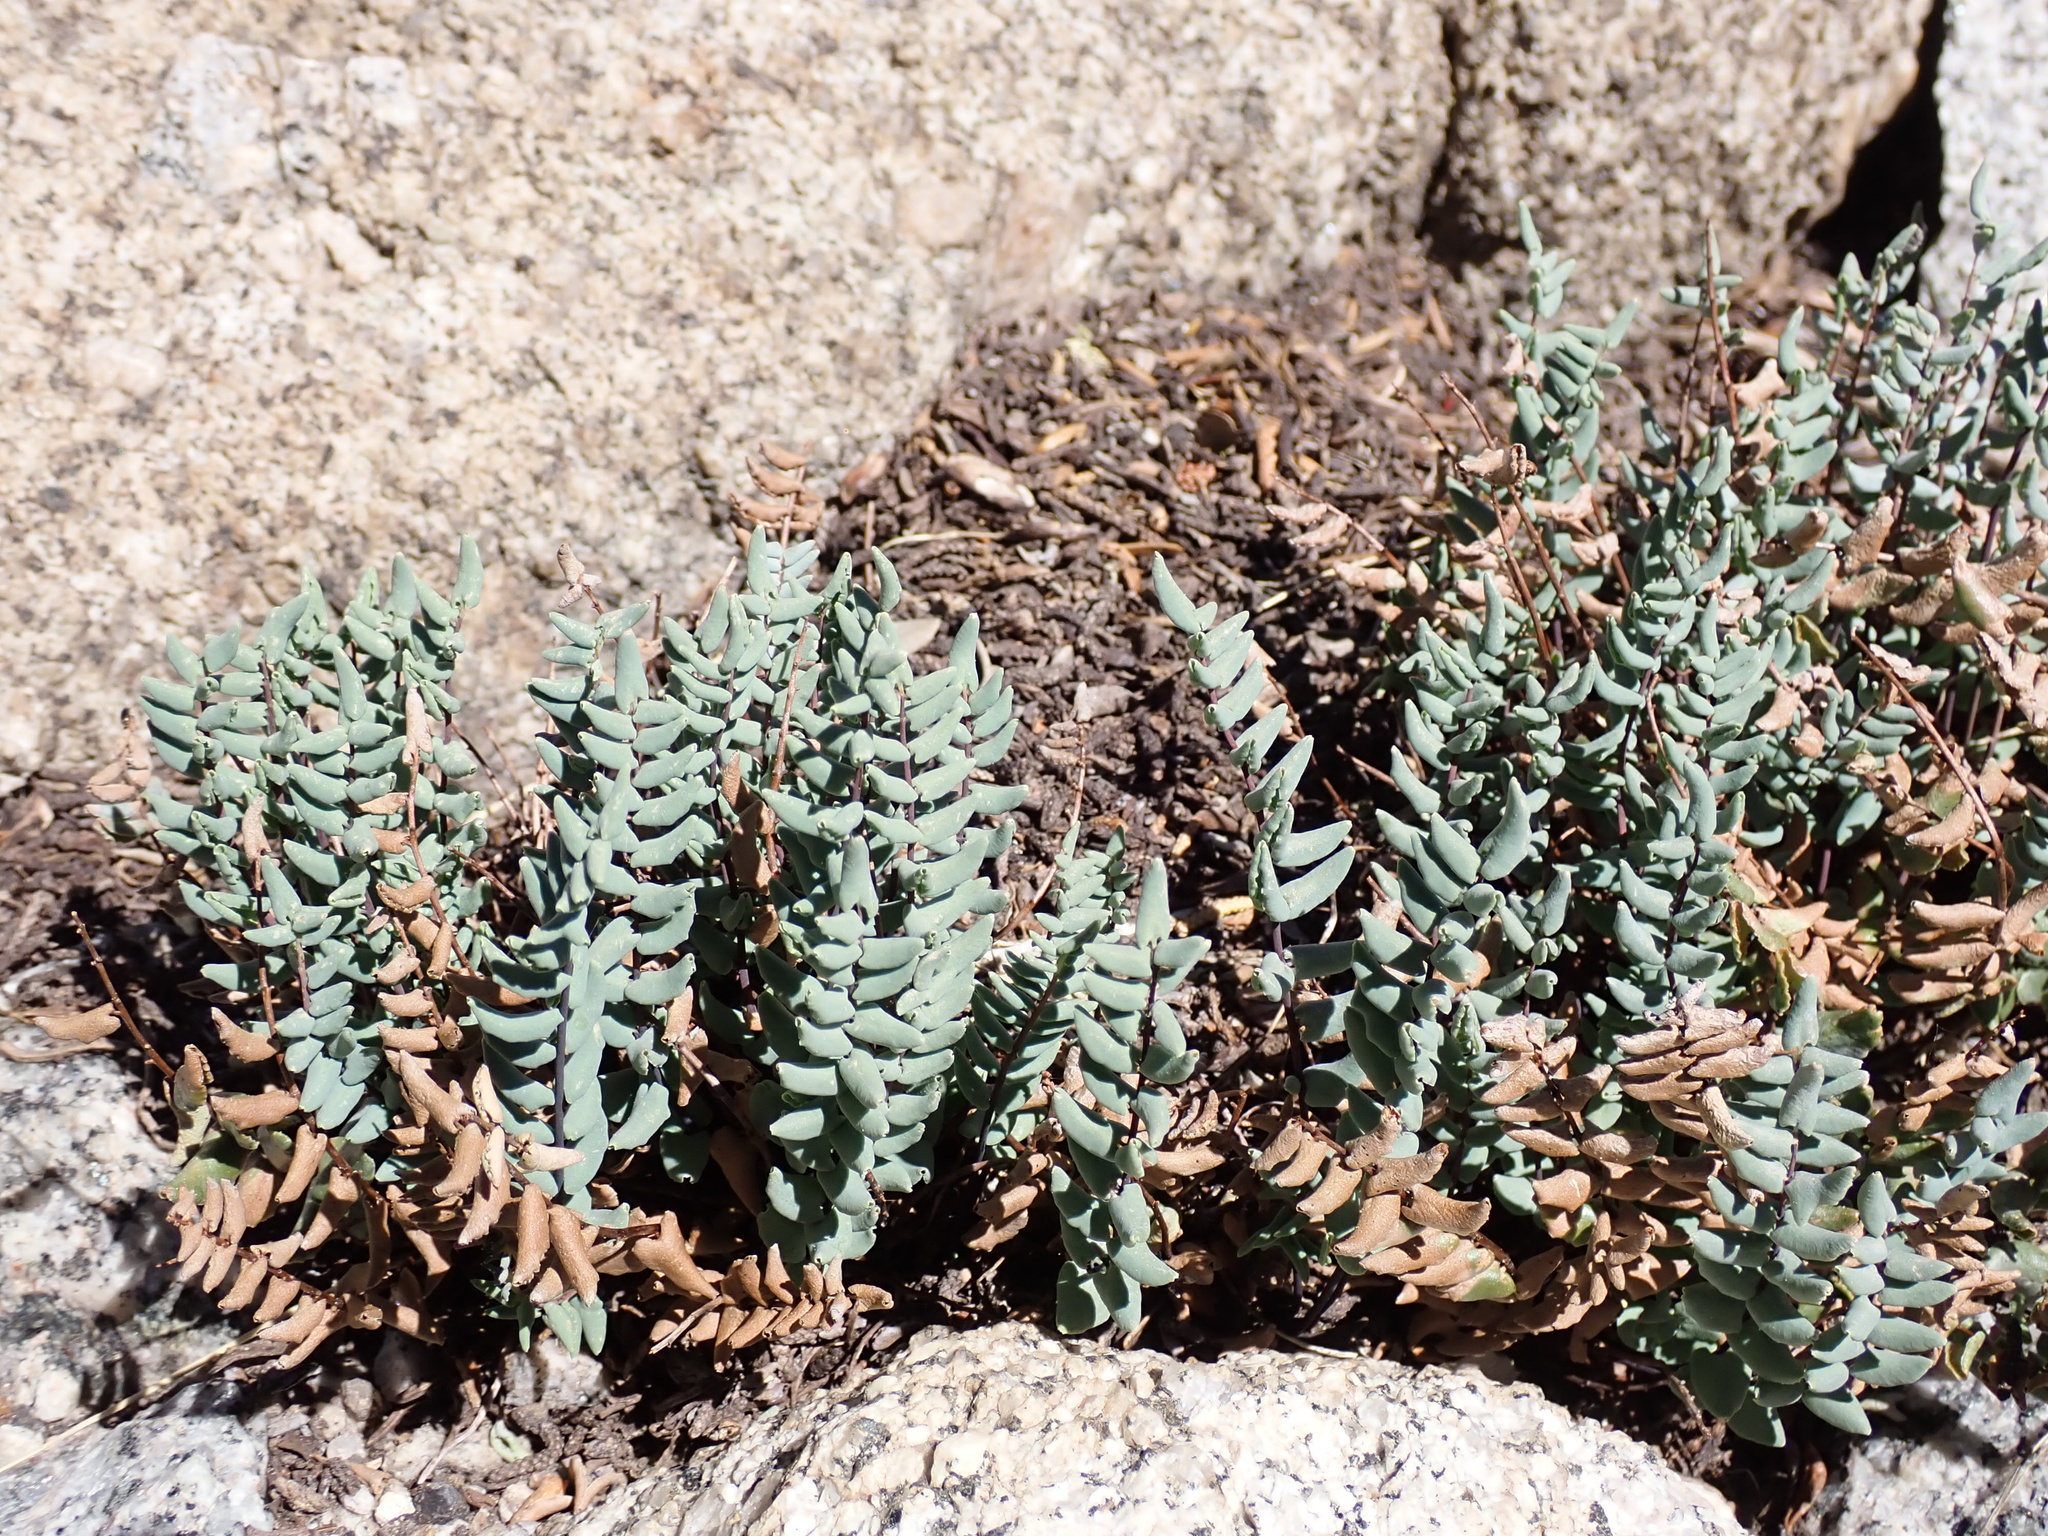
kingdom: Plantae
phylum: Tracheophyta
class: Polypodiopsida
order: Polypodiales
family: Pteridaceae
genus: Pellaea
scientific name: Pellaea bridgesii
